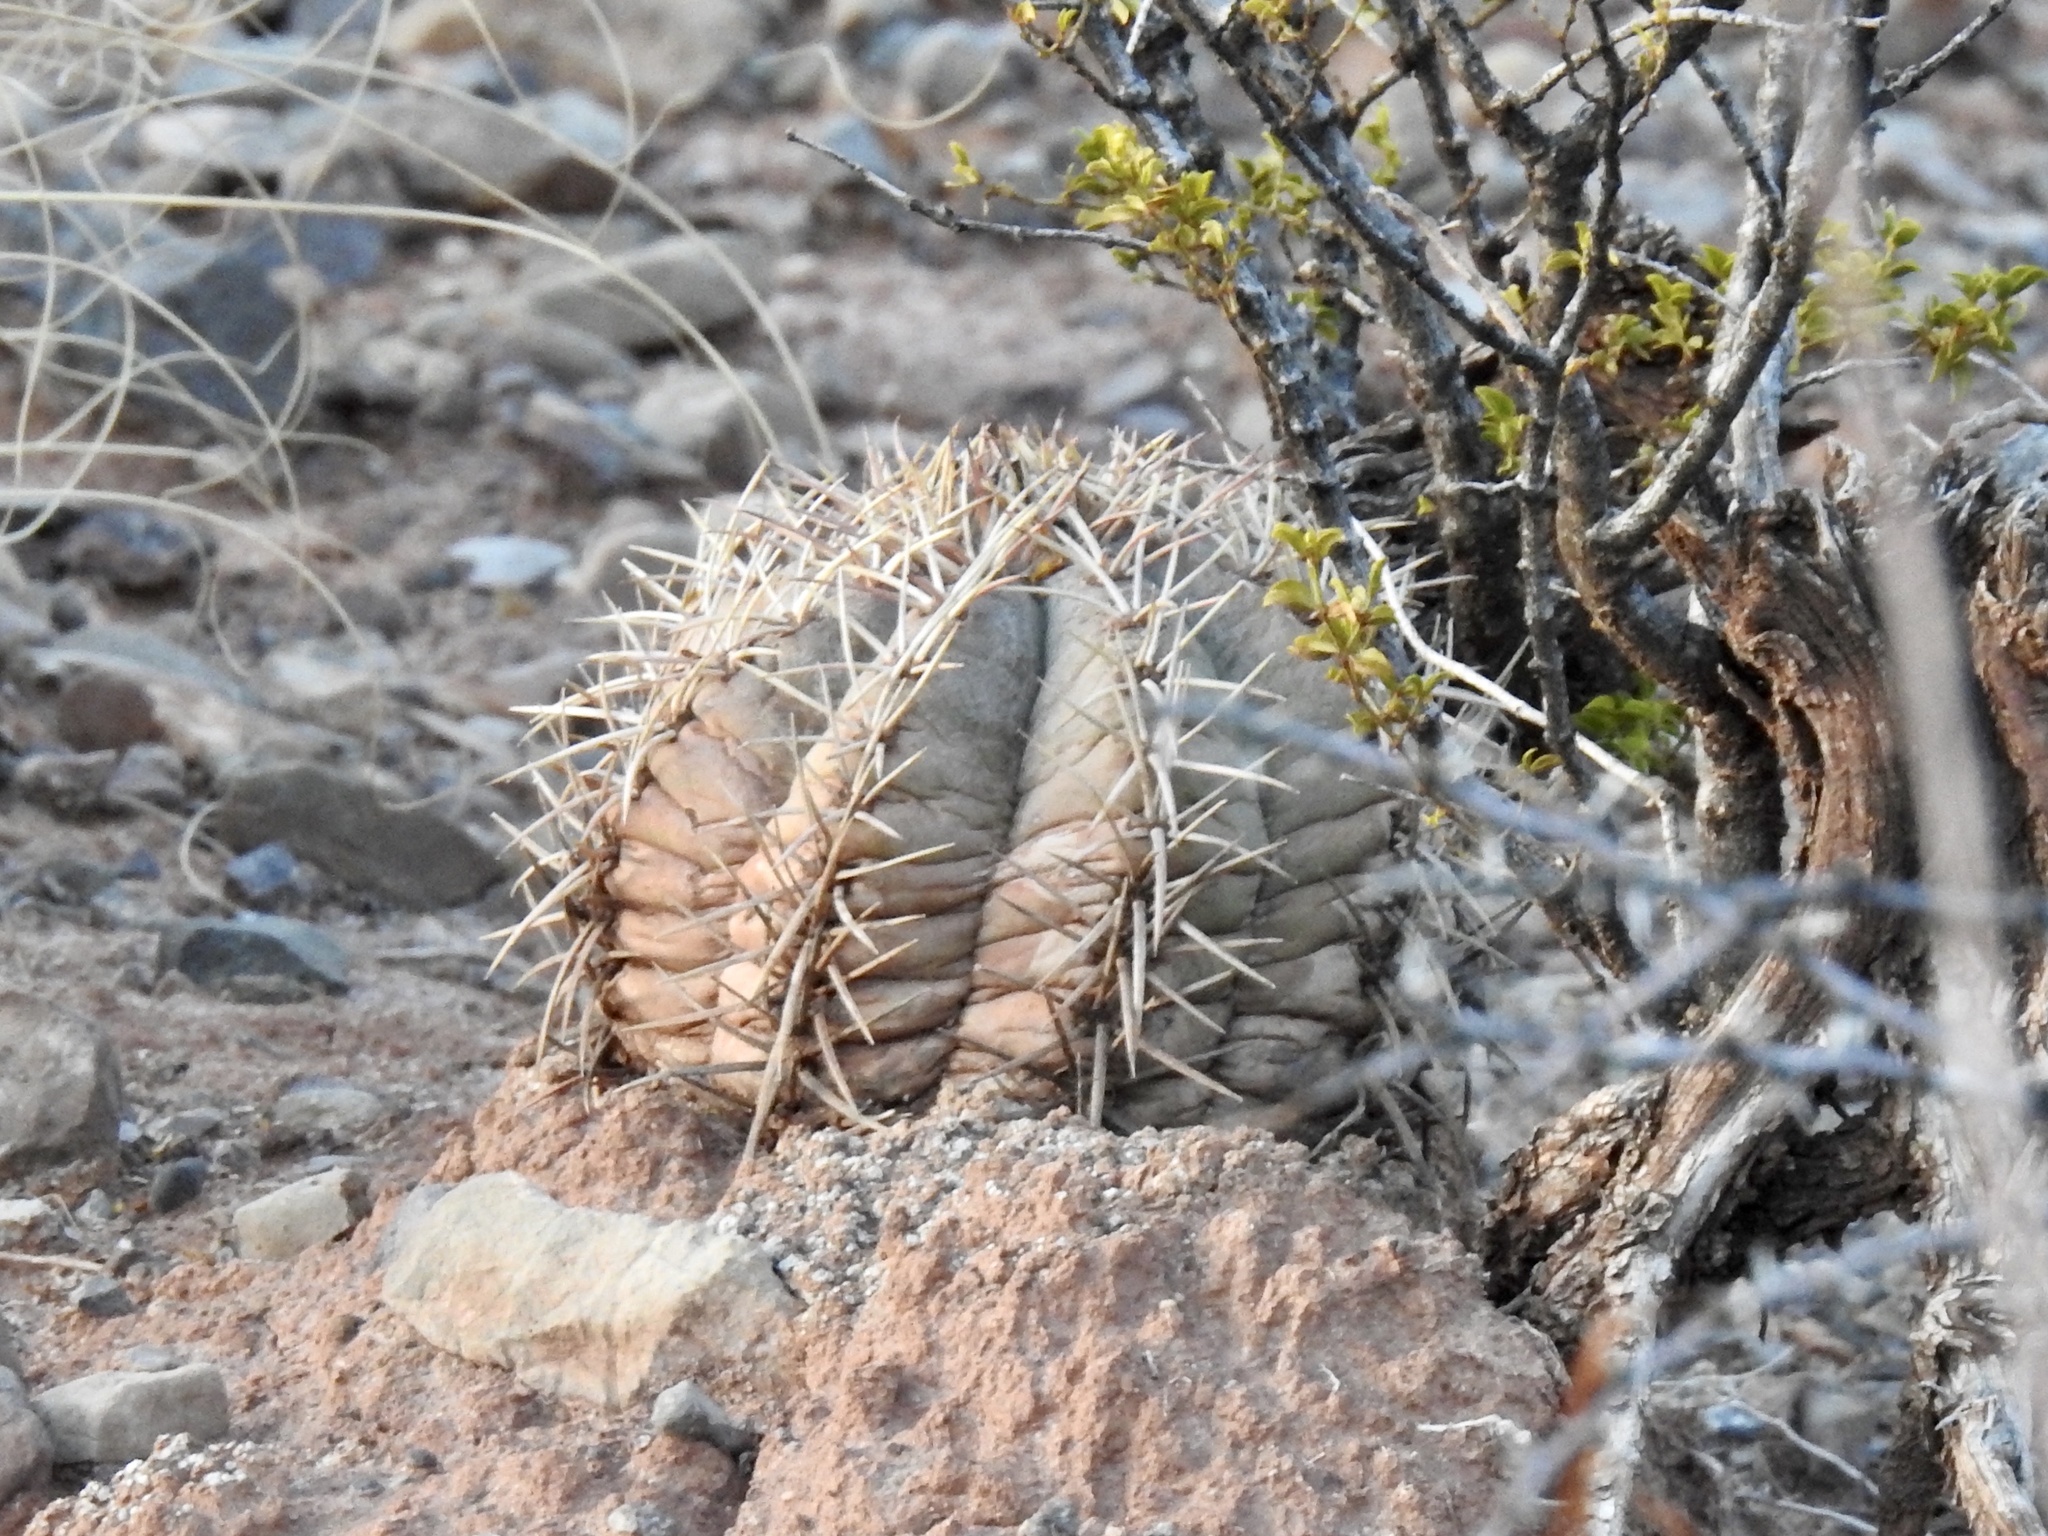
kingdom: Plantae
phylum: Tracheophyta
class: Magnoliopsida
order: Caryophyllales
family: Cactaceae
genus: Echinocactus
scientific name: Echinocactus horizonthalonius
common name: Devilshead
